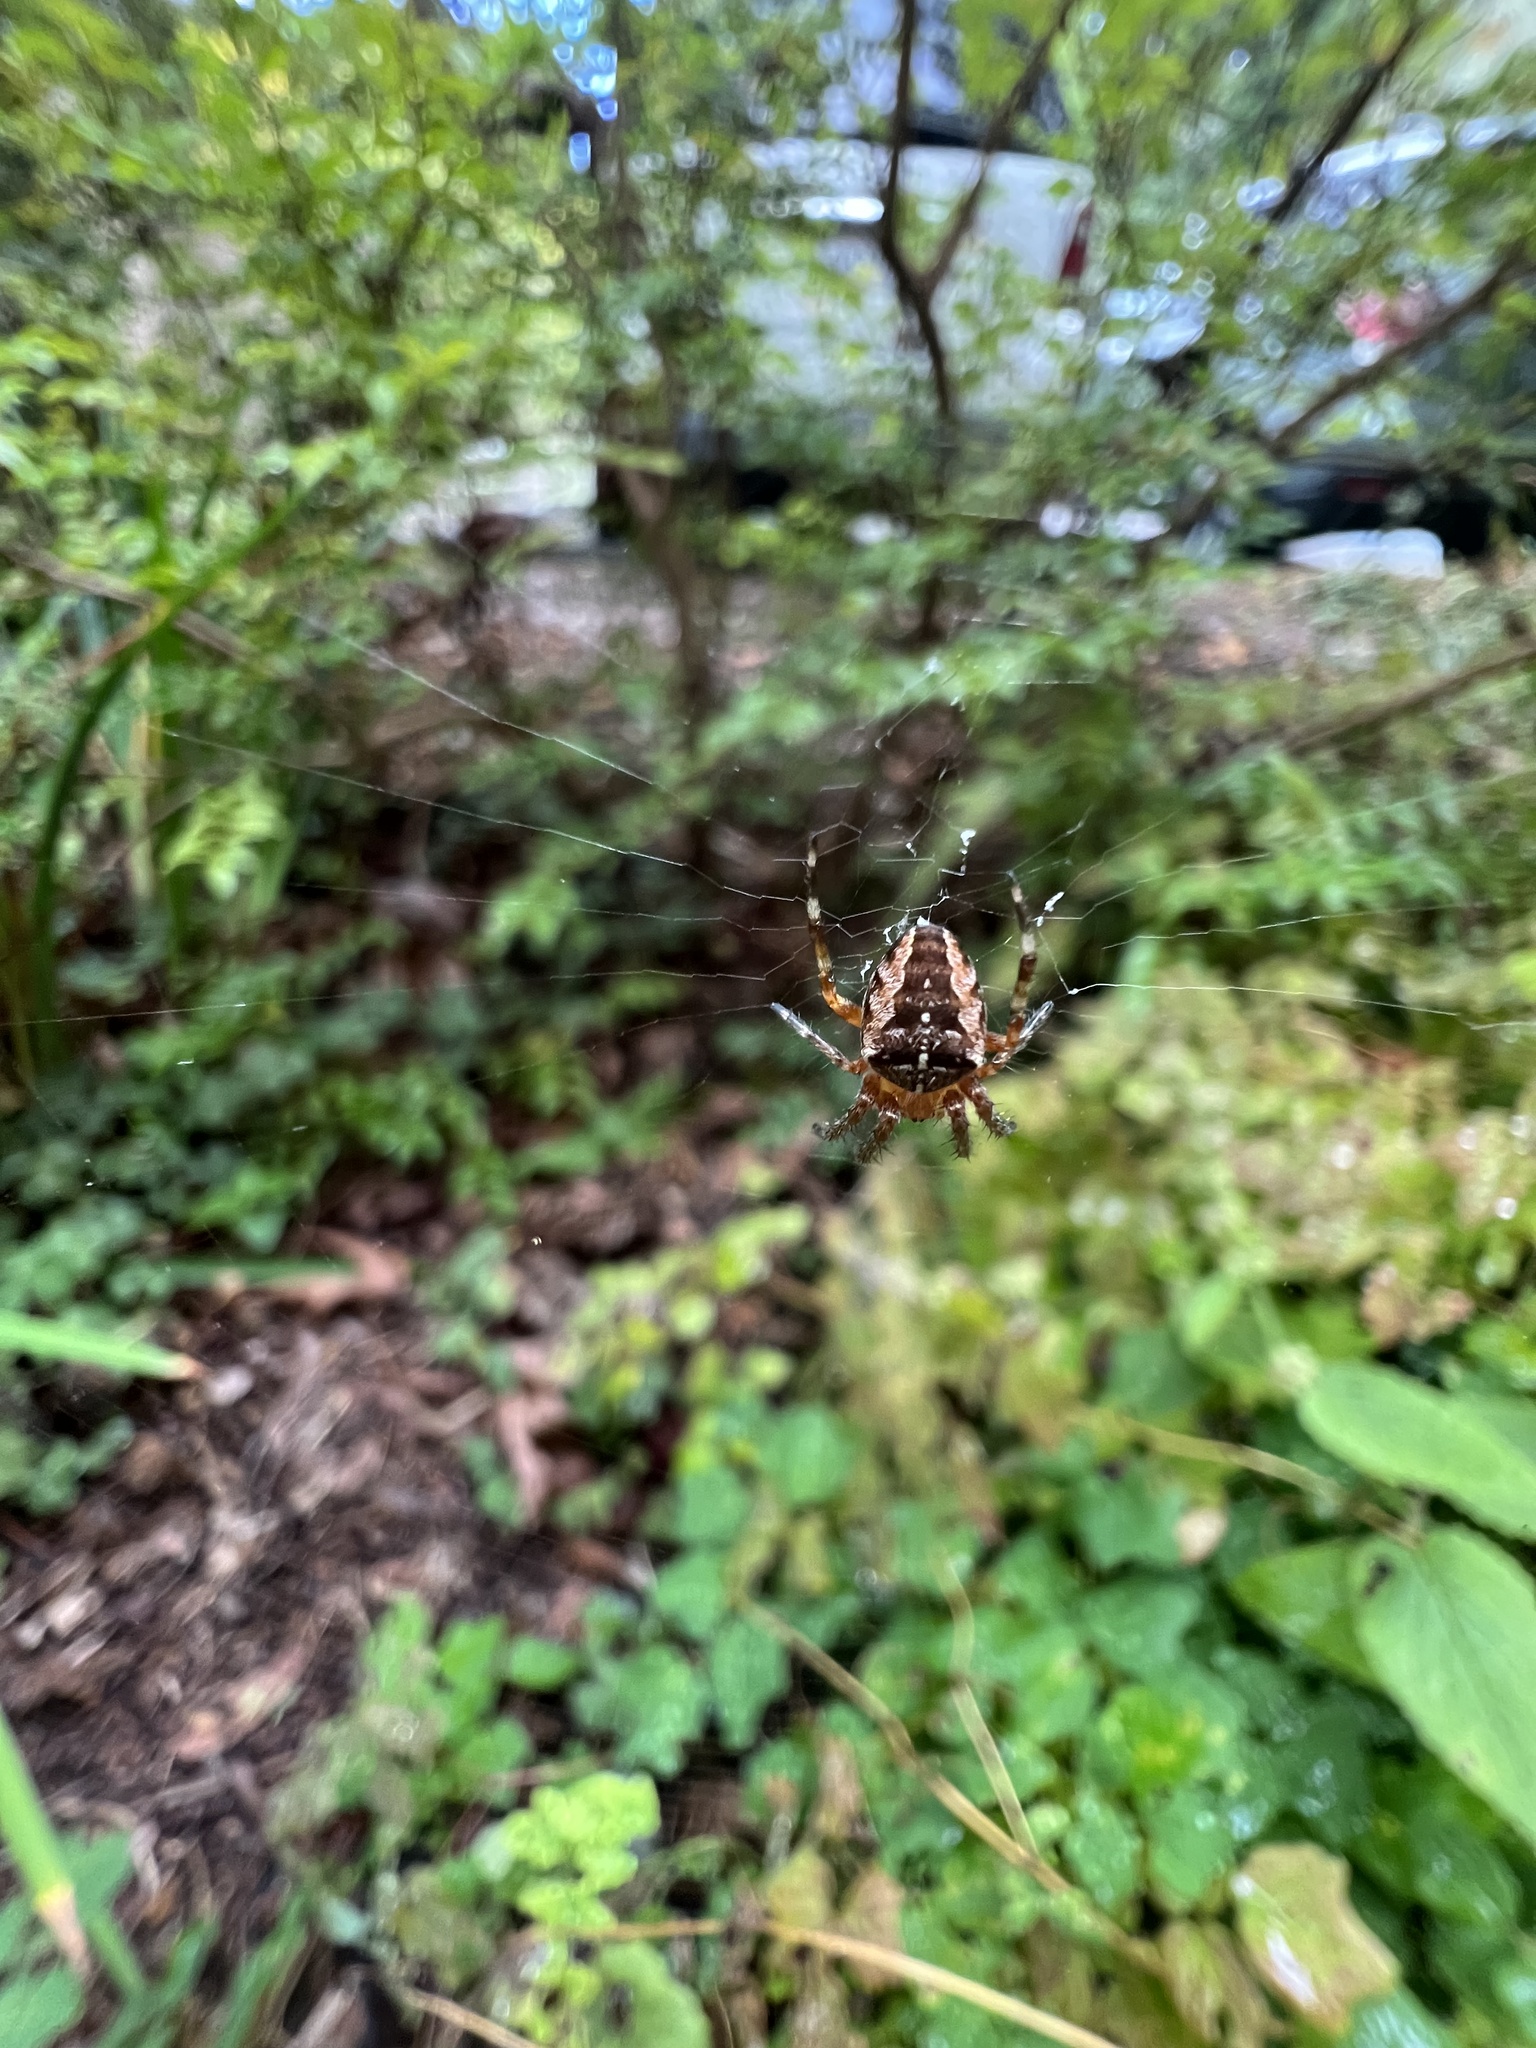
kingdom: Animalia
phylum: Arthropoda
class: Arachnida
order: Araneae
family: Araneidae
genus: Araneus
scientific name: Araneus diadematus
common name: Cross orbweaver
